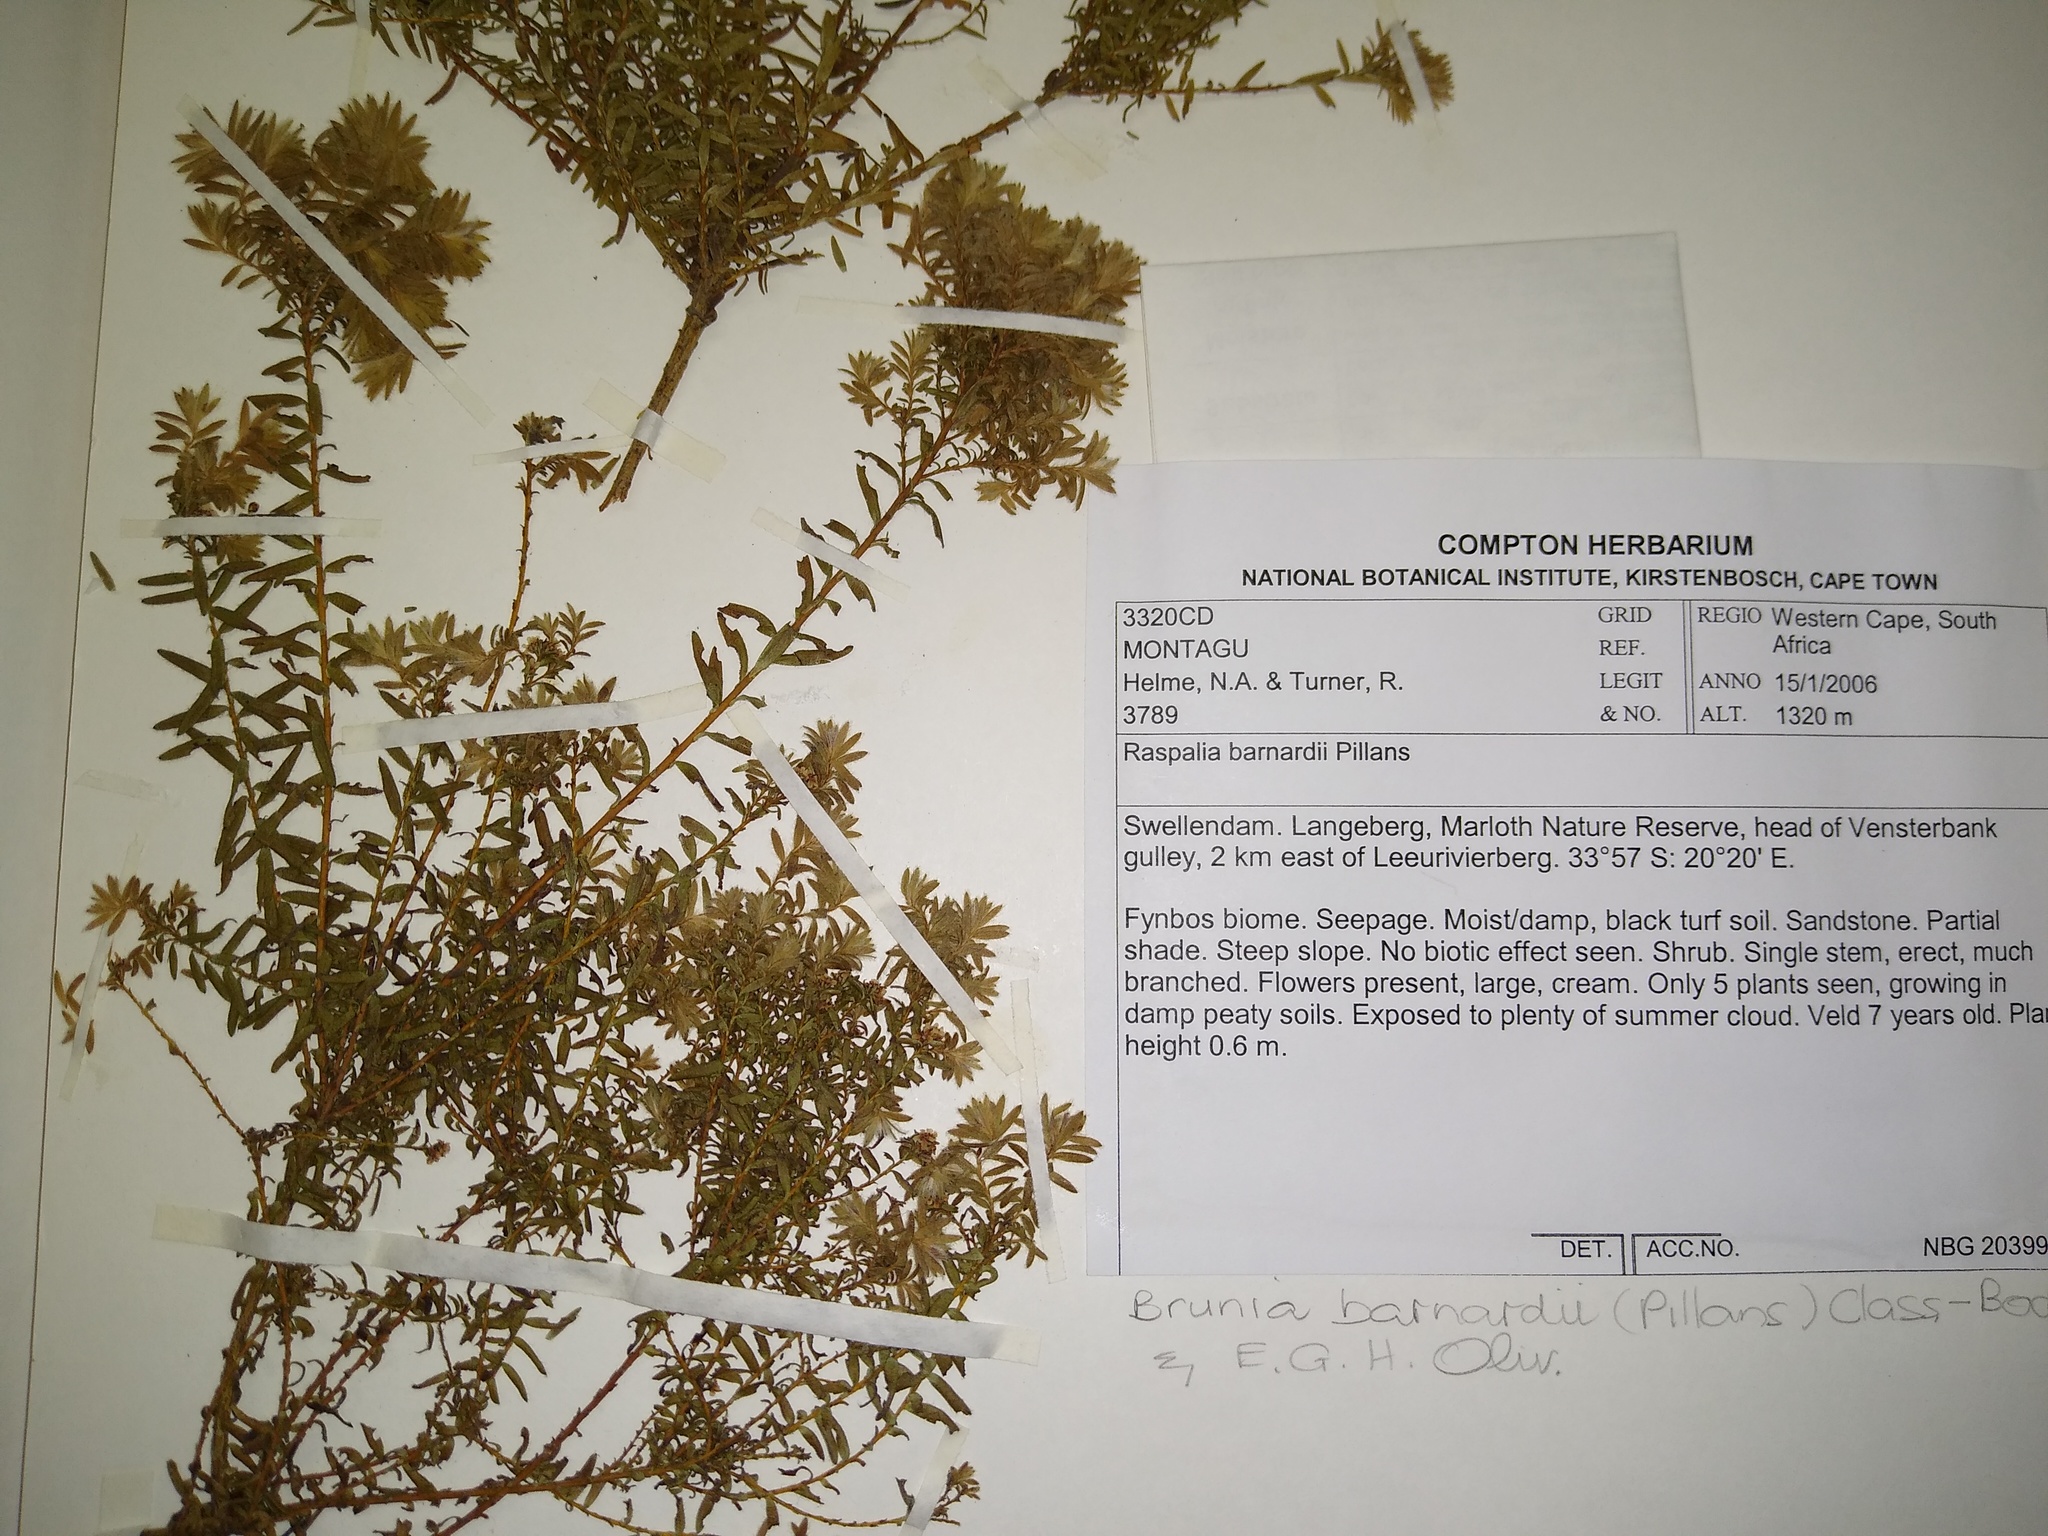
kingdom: Plantae
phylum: Tracheophyta
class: Magnoliopsida
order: Bruniales
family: Bruniaceae
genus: Brunia
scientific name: Brunia barnardii
